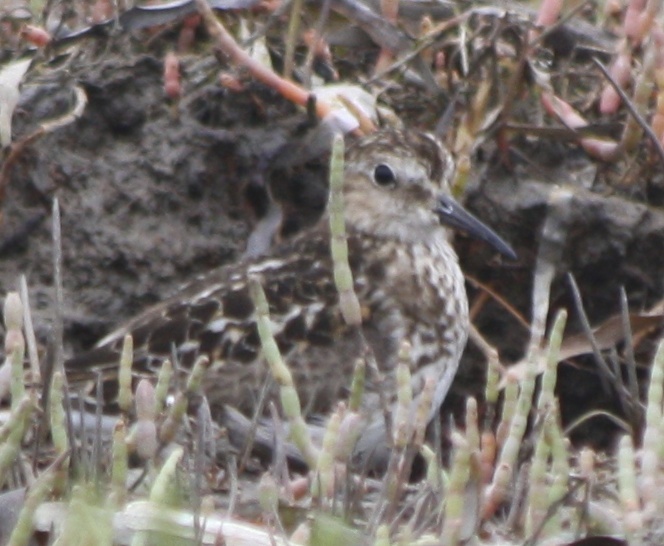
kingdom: Animalia
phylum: Chordata
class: Aves
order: Charadriiformes
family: Scolopacidae
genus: Calidris
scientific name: Calidris minutilla
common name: Least sandpiper
